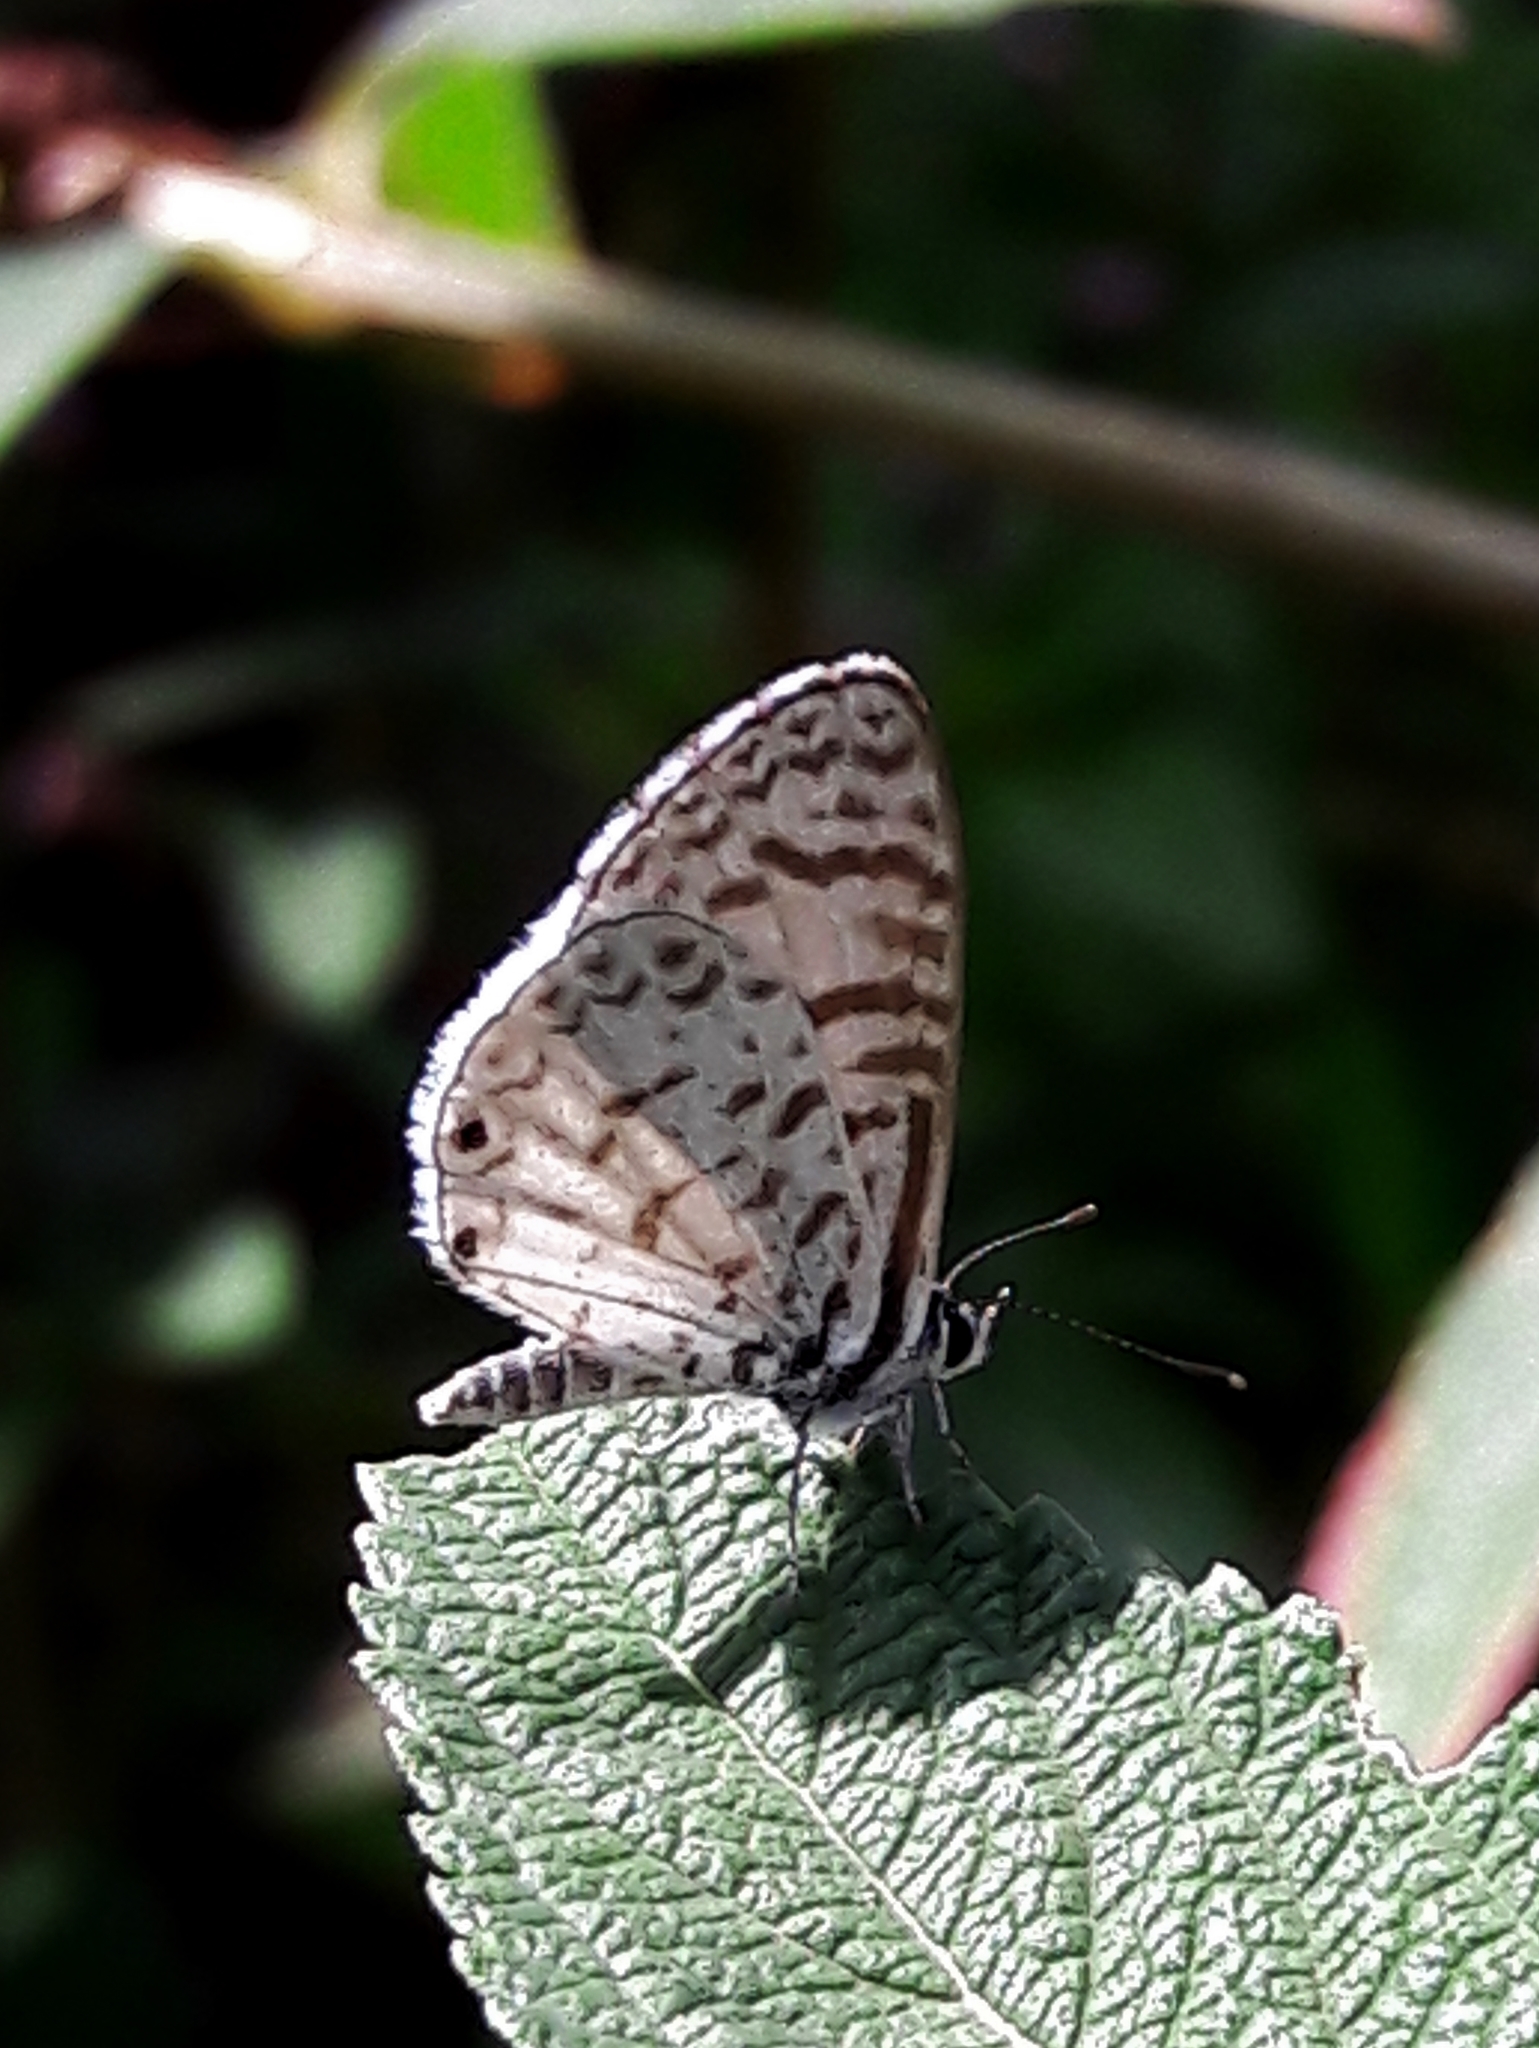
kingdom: Animalia
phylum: Arthropoda
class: Insecta
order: Lepidoptera
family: Lycaenidae
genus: Leptotes
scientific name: Leptotes cassius
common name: Cassius blue
